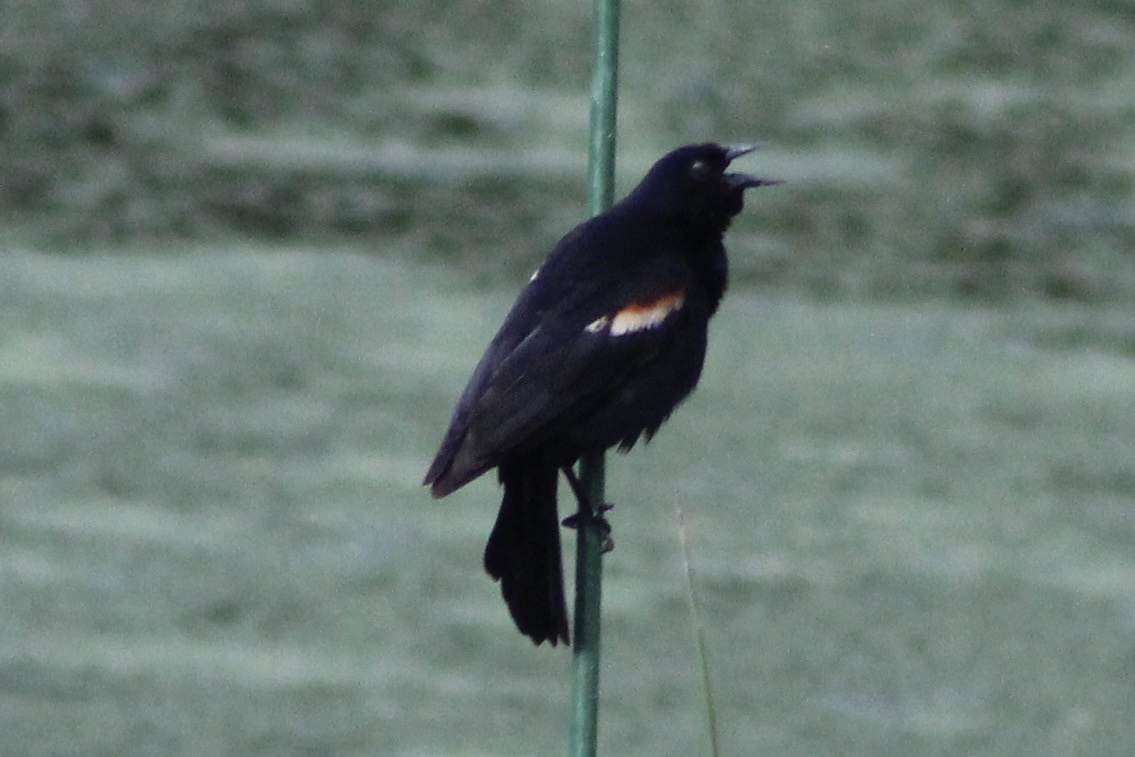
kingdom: Animalia
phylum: Chordata
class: Aves
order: Passeriformes
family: Icteridae
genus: Agelaius
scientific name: Agelaius phoeniceus
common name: Red-winged blackbird
